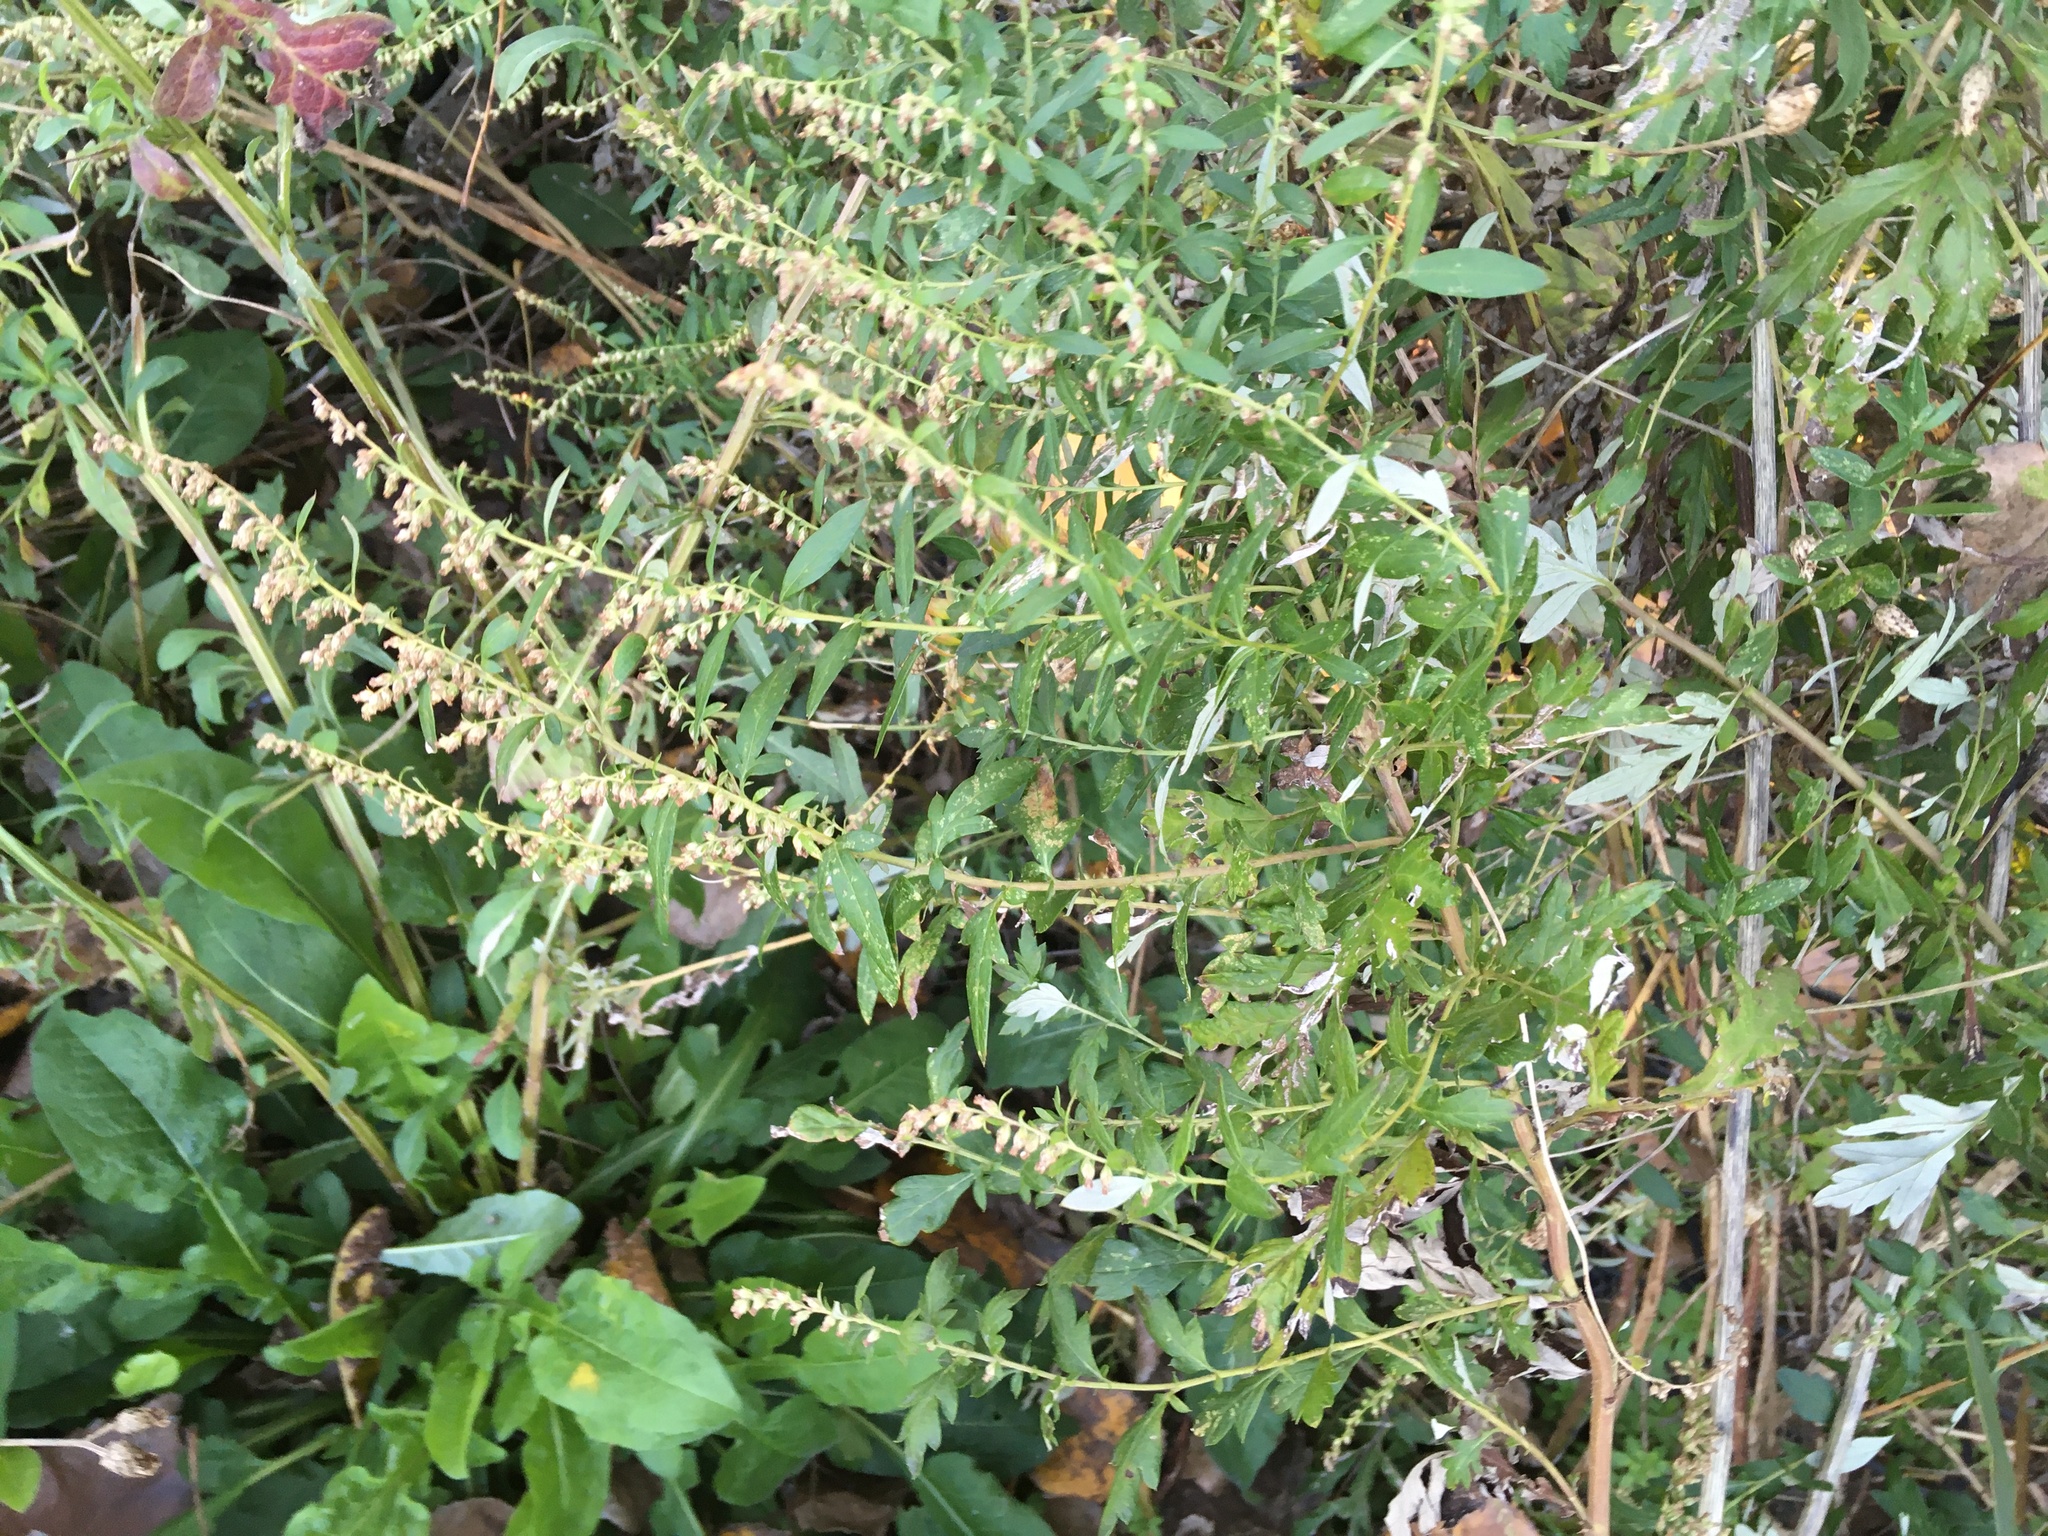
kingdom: Plantae
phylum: Tracheophyta
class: Magnoliopsida
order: Asterales
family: Asteraceae
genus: Artemisia
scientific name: Artemisia vulgaris
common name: Mugwort
